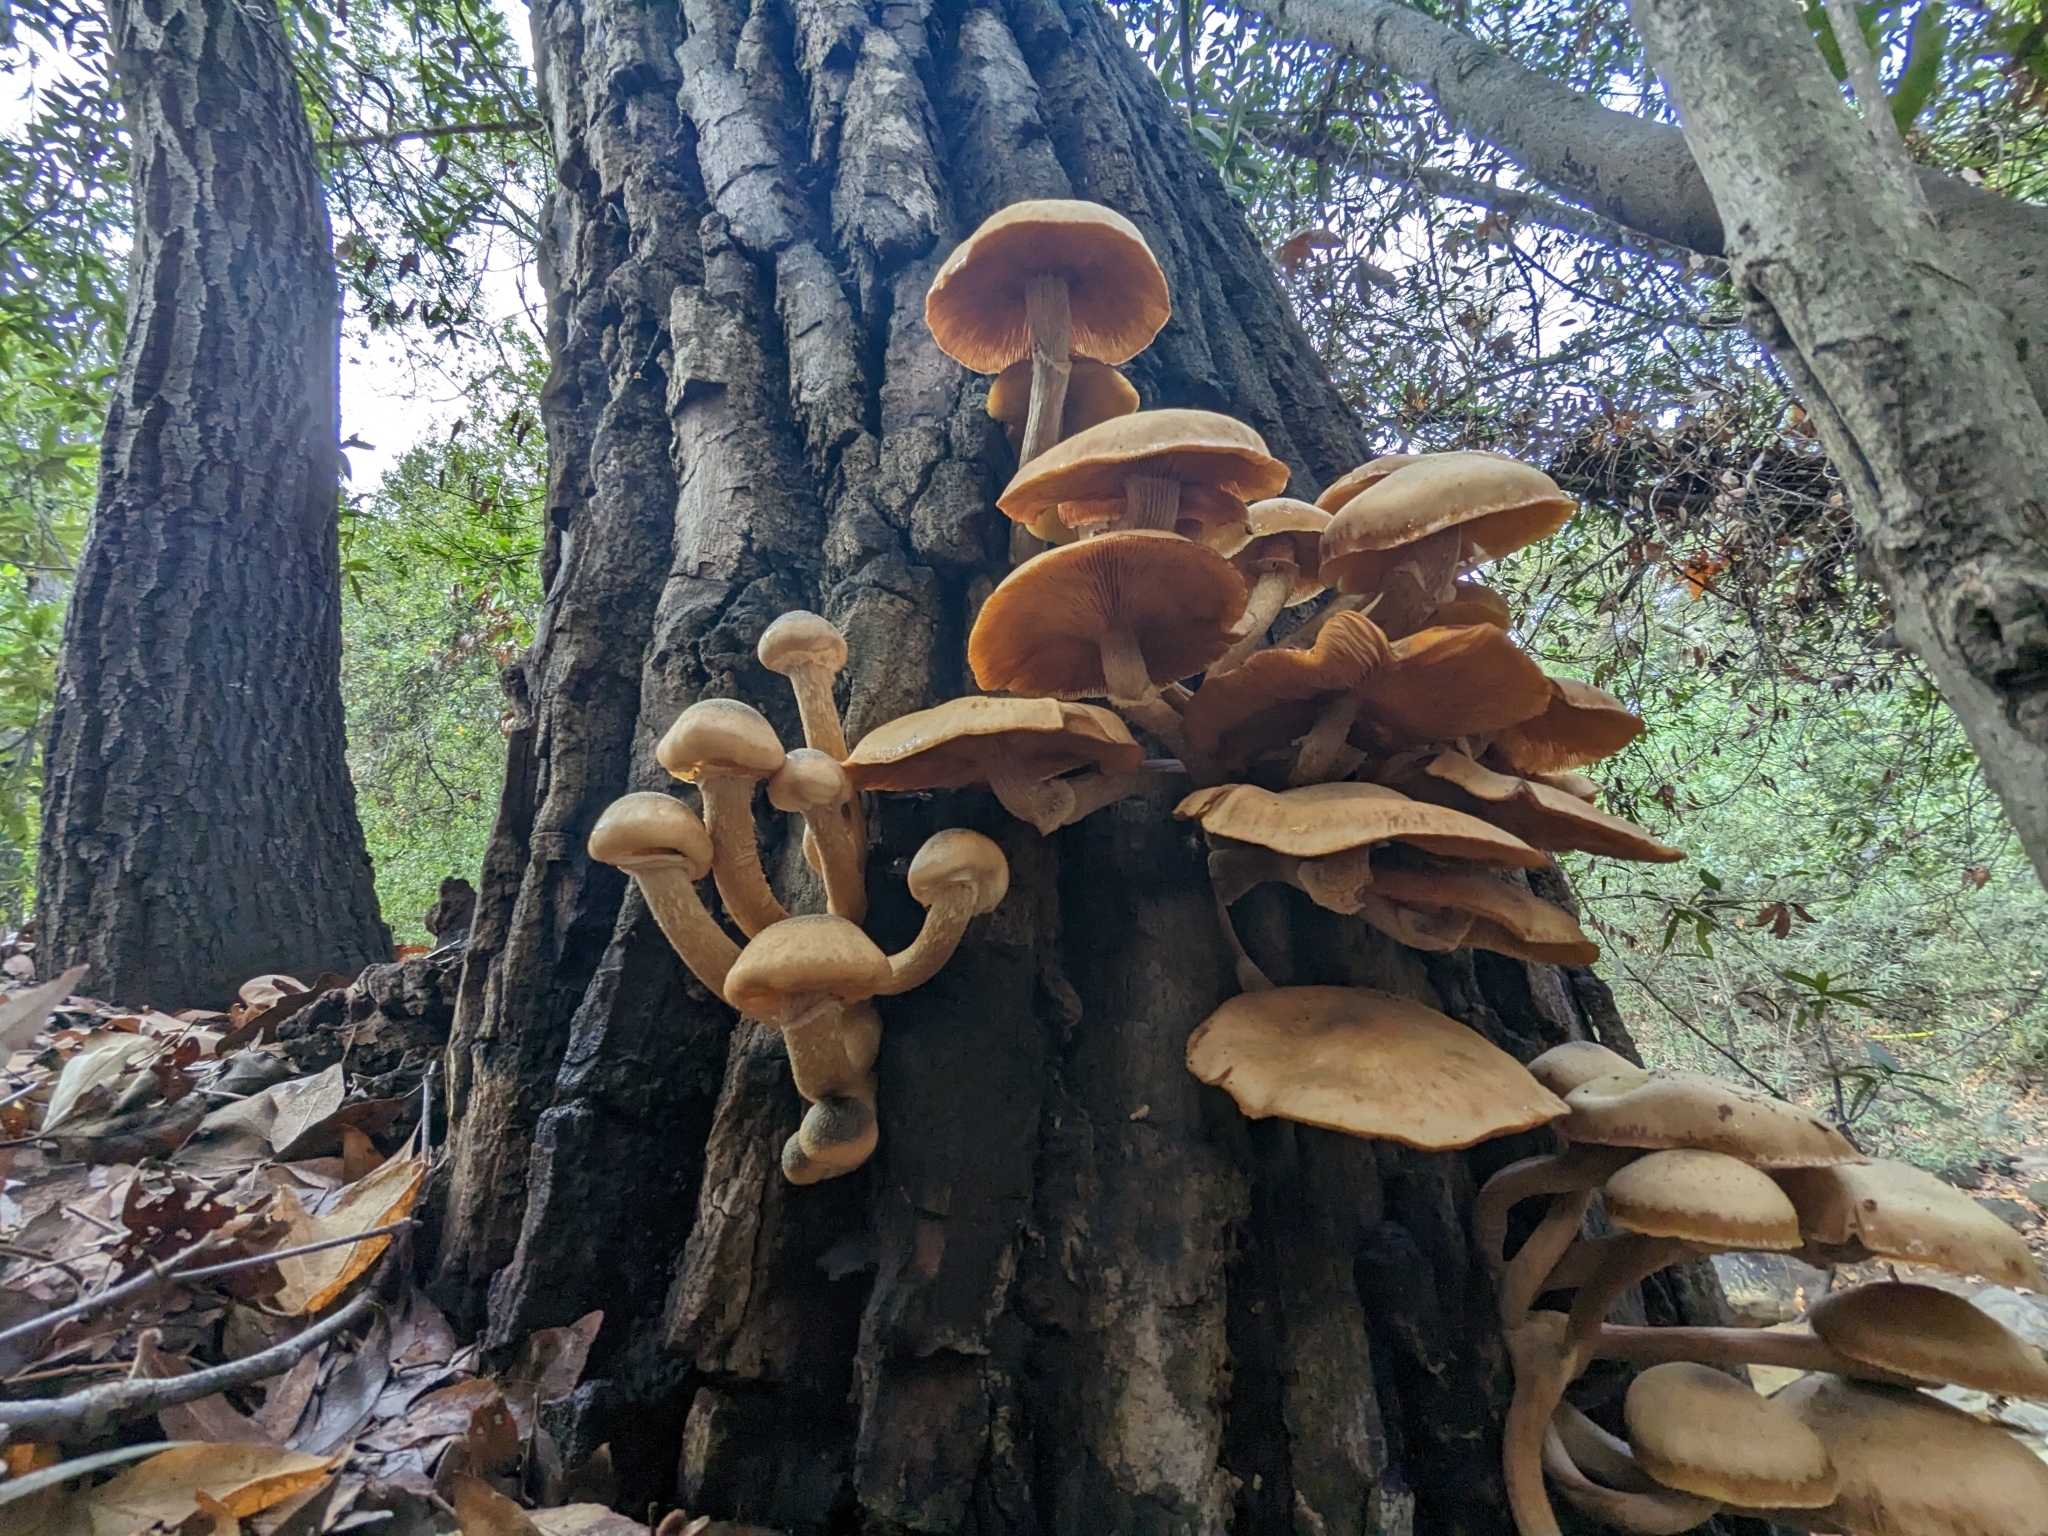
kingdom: Fungi
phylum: Basidiomycota
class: Agaricomycetes
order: Agaricales
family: Physalacriaceae
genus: Armillaria
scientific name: Armillaria mellea
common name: Honey fungus
